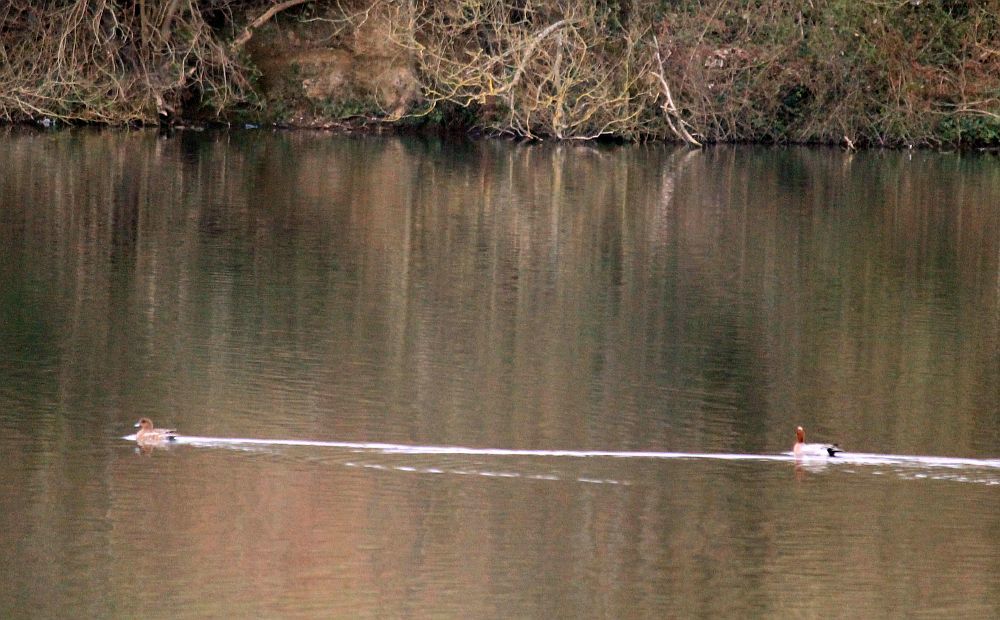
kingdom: Animalia
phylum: Chordata
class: Aves
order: Anseriformes
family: Anatidae
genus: Mareca
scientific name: Mareca penelope
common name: Eurasian wigeon
